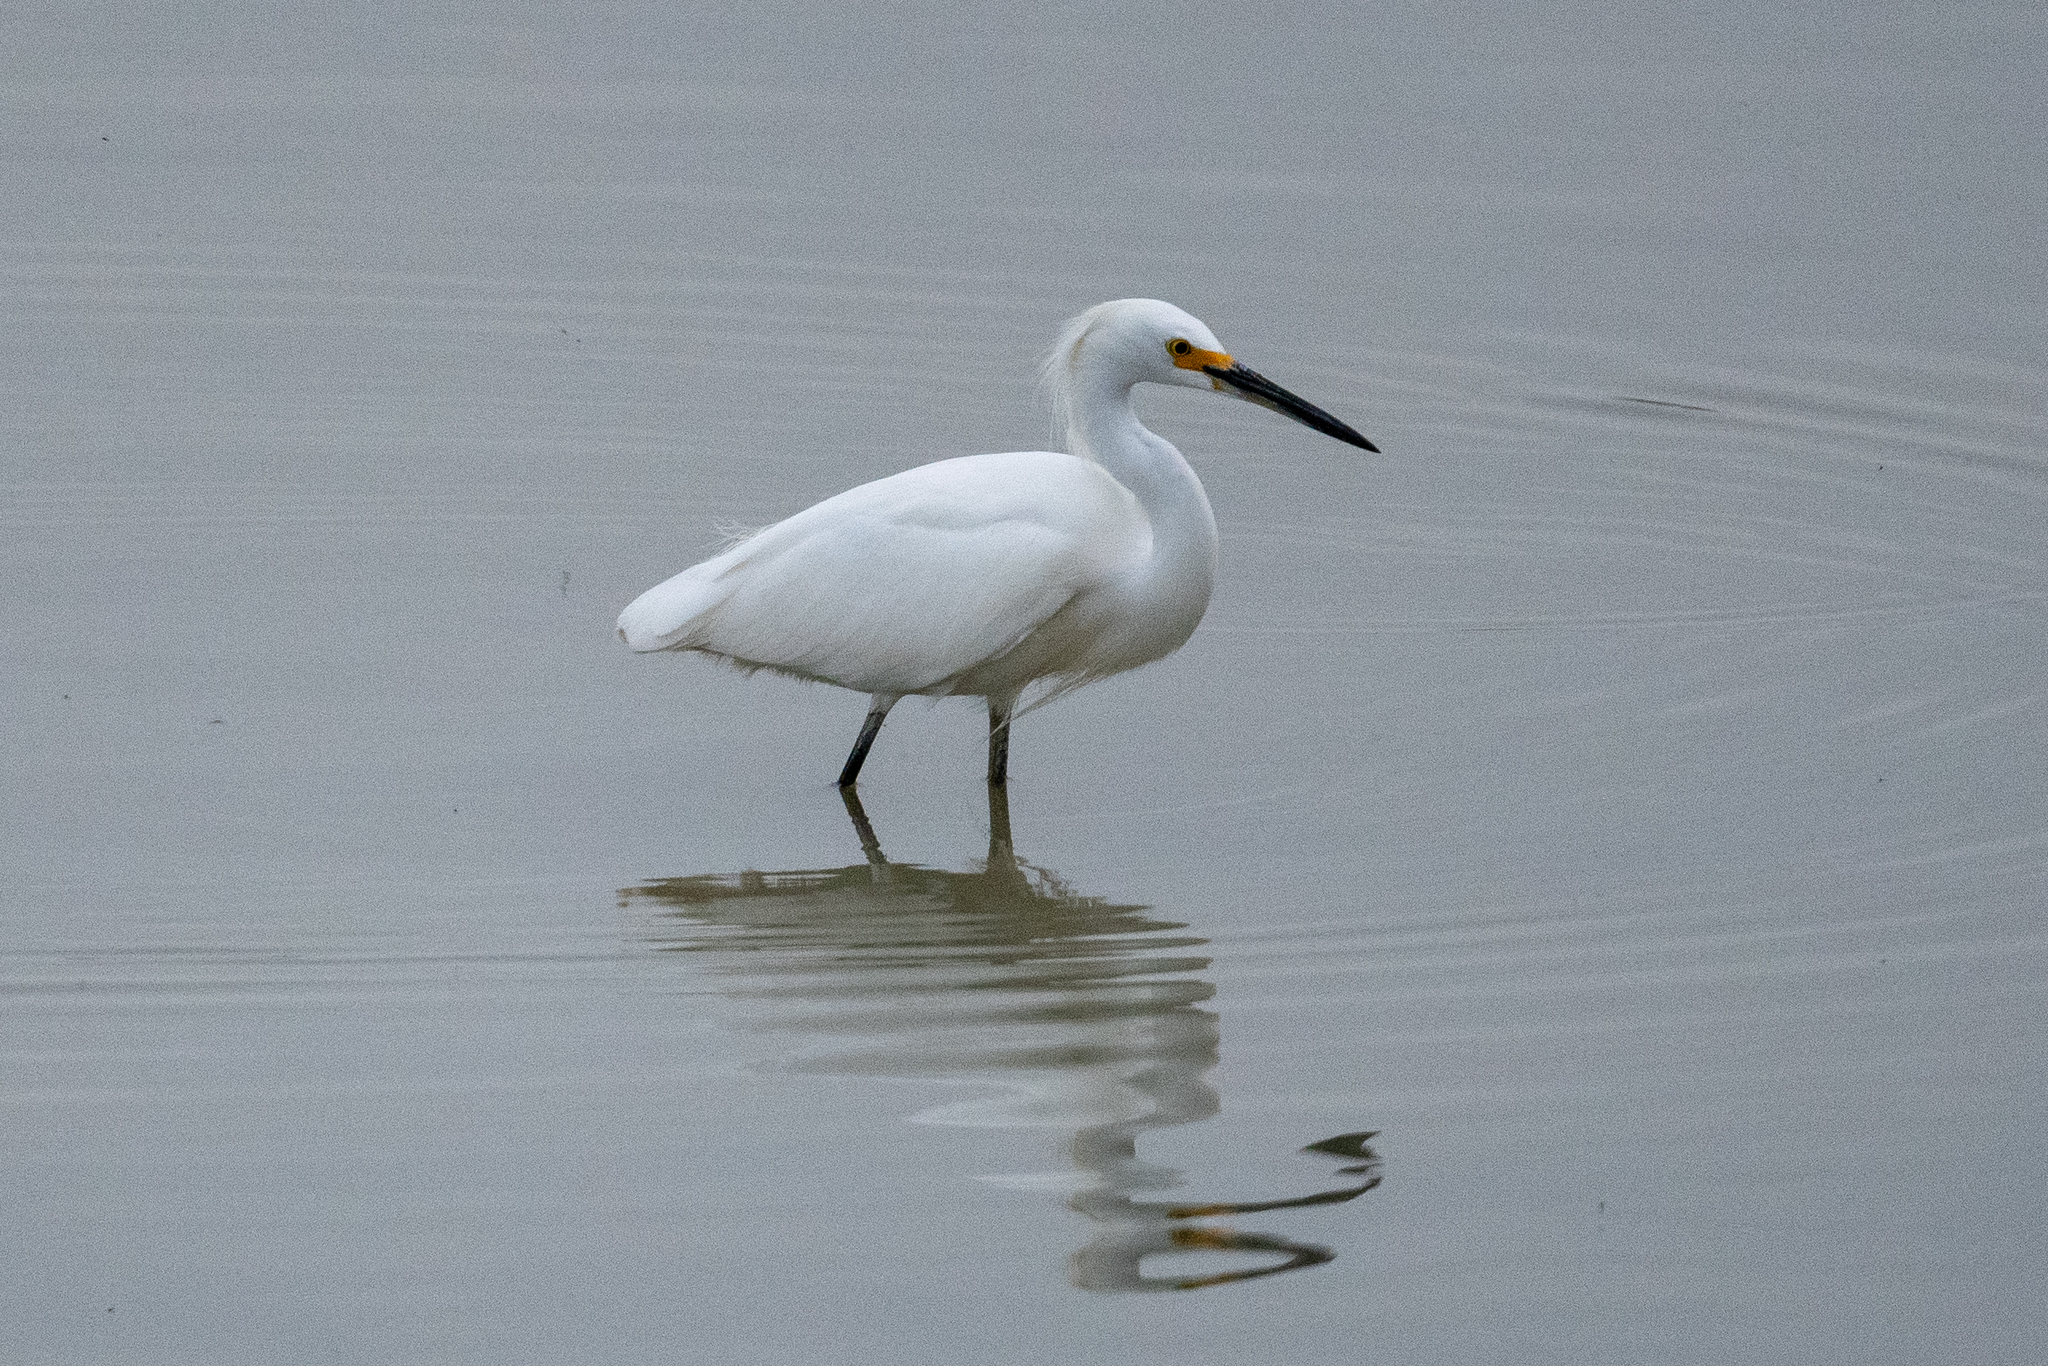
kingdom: Animalia
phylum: Chordata
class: Aves
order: Pelecaniformes
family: Ardeidae
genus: Egretta
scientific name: Egretta thula
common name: Snowy egret
